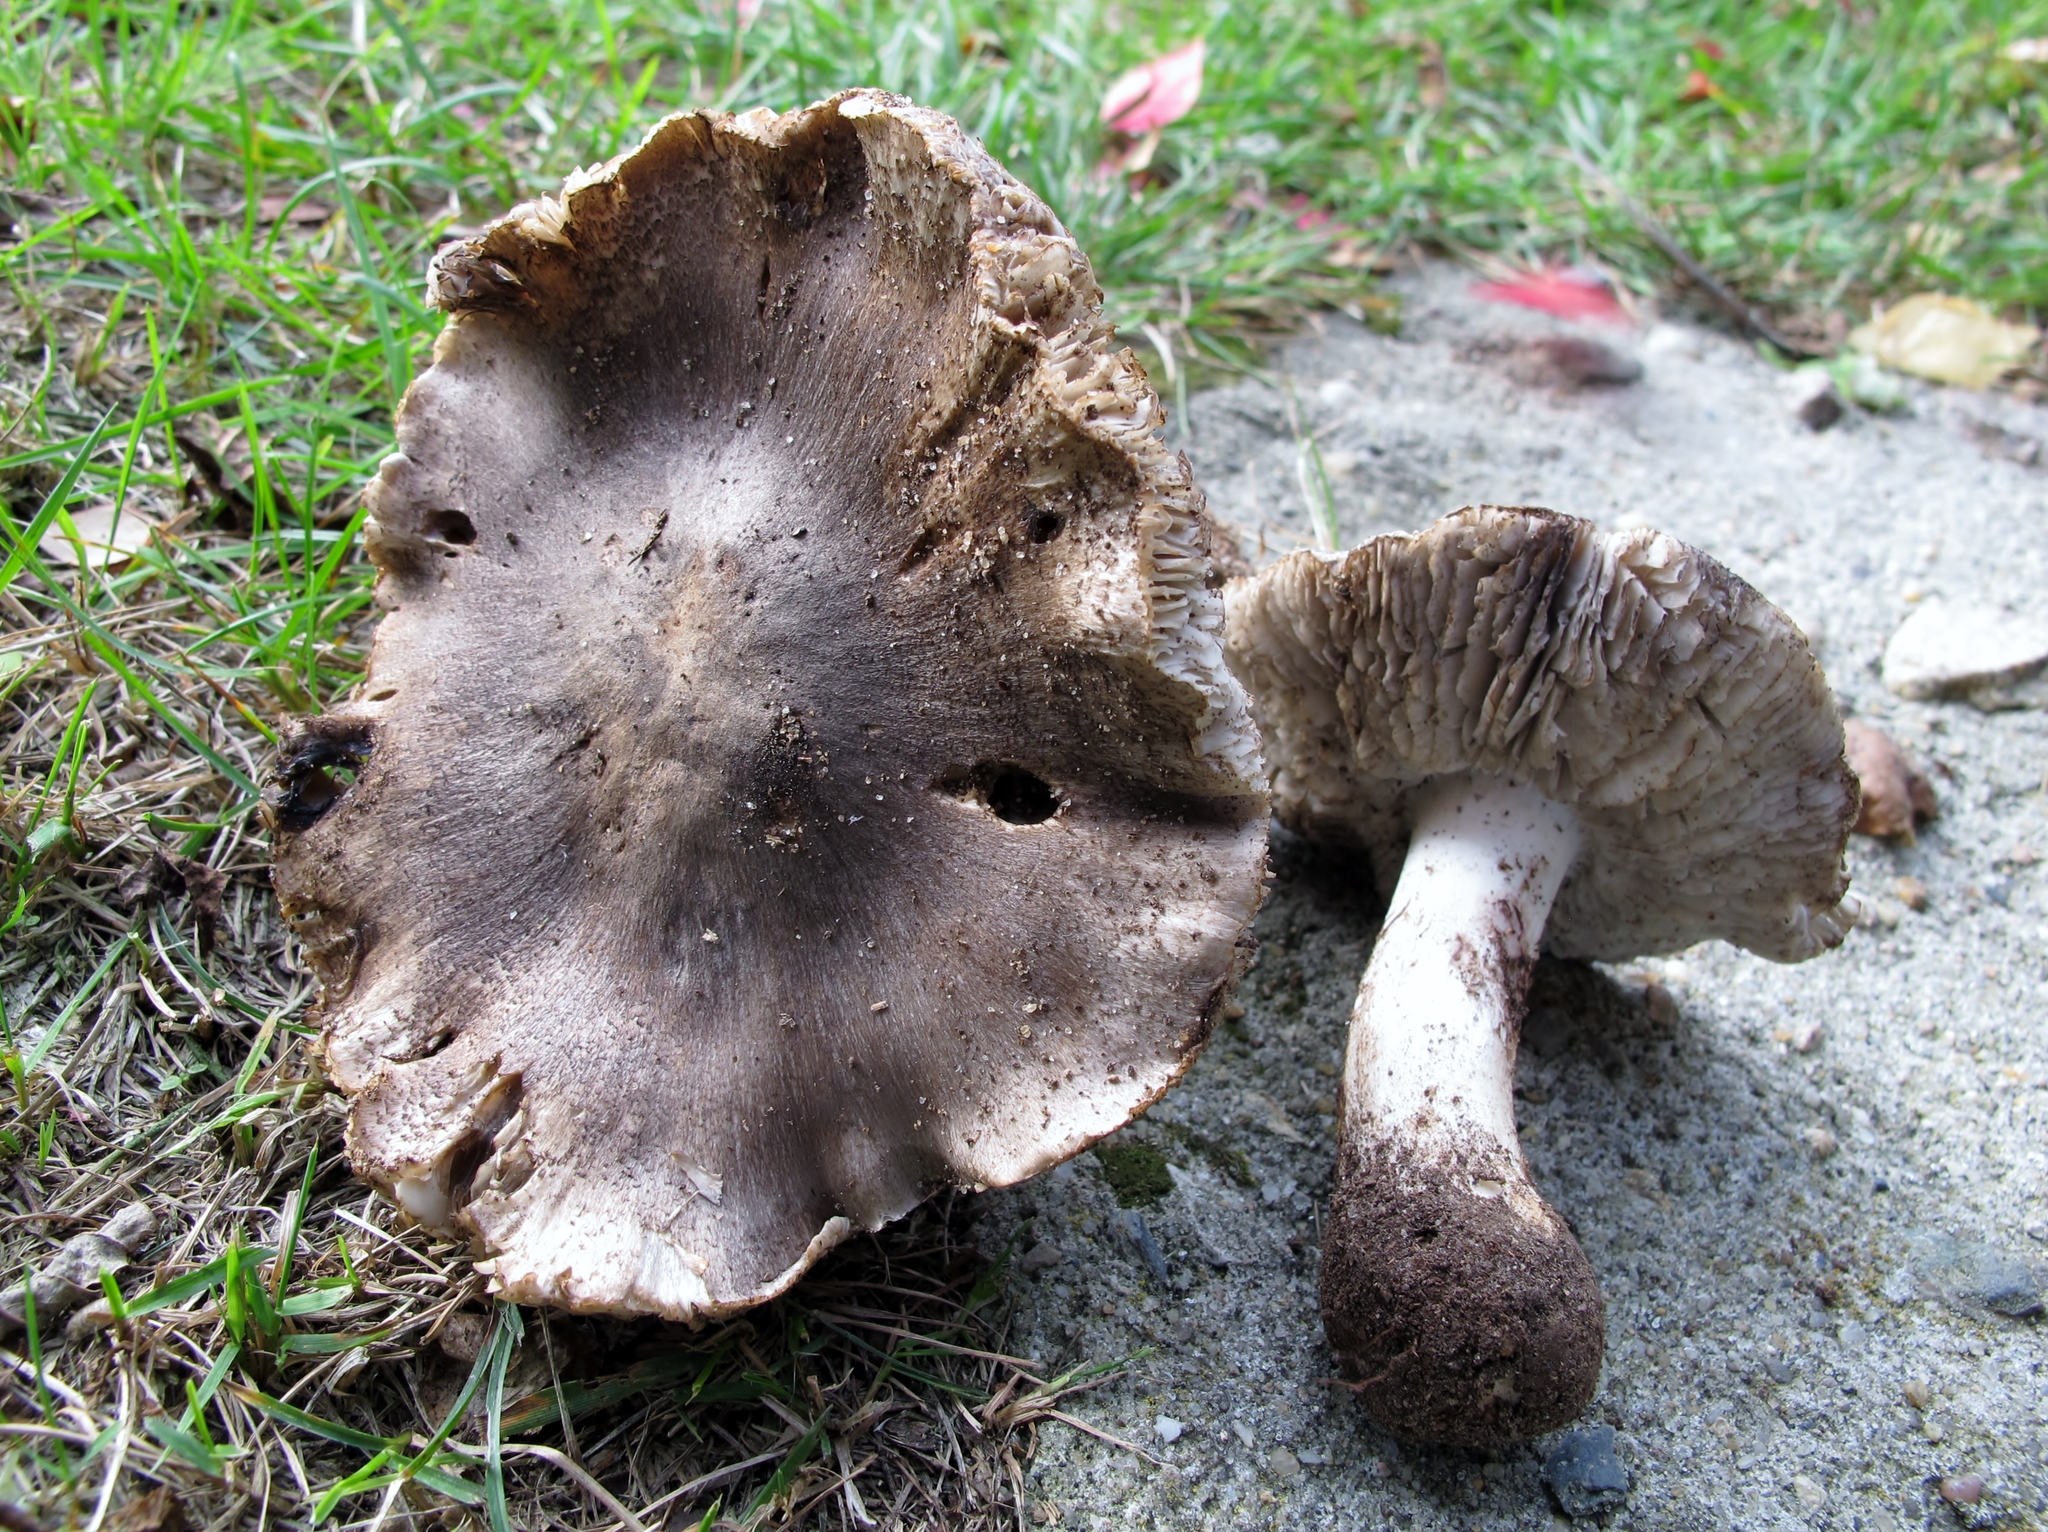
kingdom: Fungi
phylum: Basidiomycota
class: Agaricomycetes
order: Agaricales
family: Tricholomataceae
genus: Tricholoma
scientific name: Tricholoma niveipes
